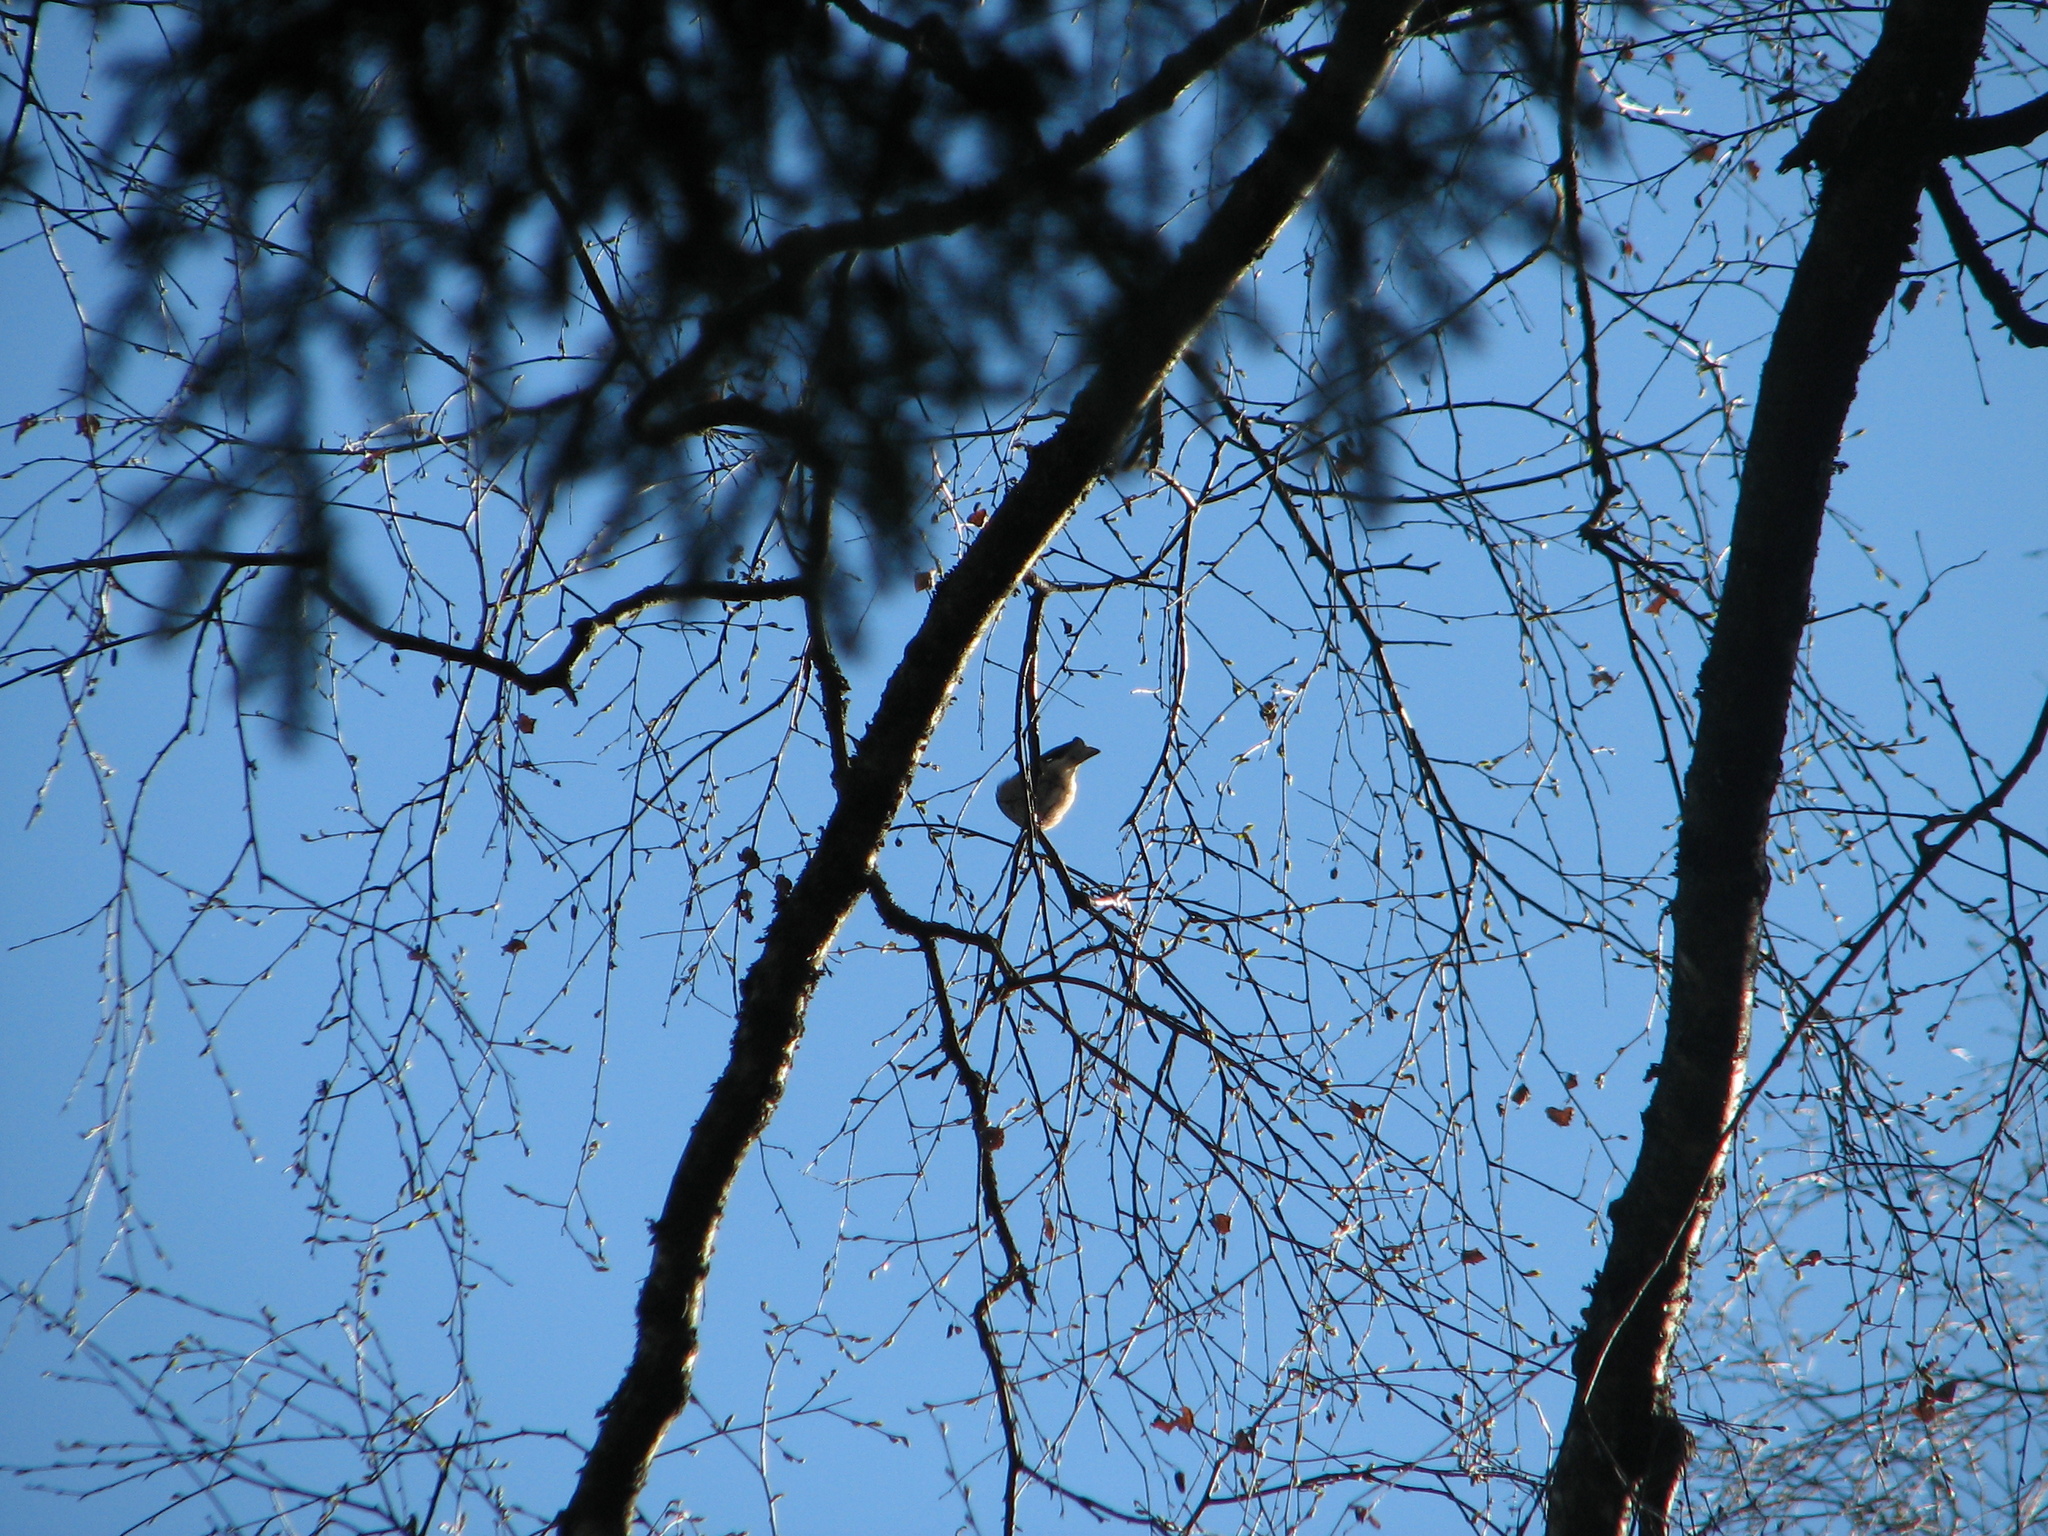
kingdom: Animalia
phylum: Chordata
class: Aves
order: Passeriformes
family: Fringillidae
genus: Fringilla
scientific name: Fringilla coelebs
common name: Common chaffinch
